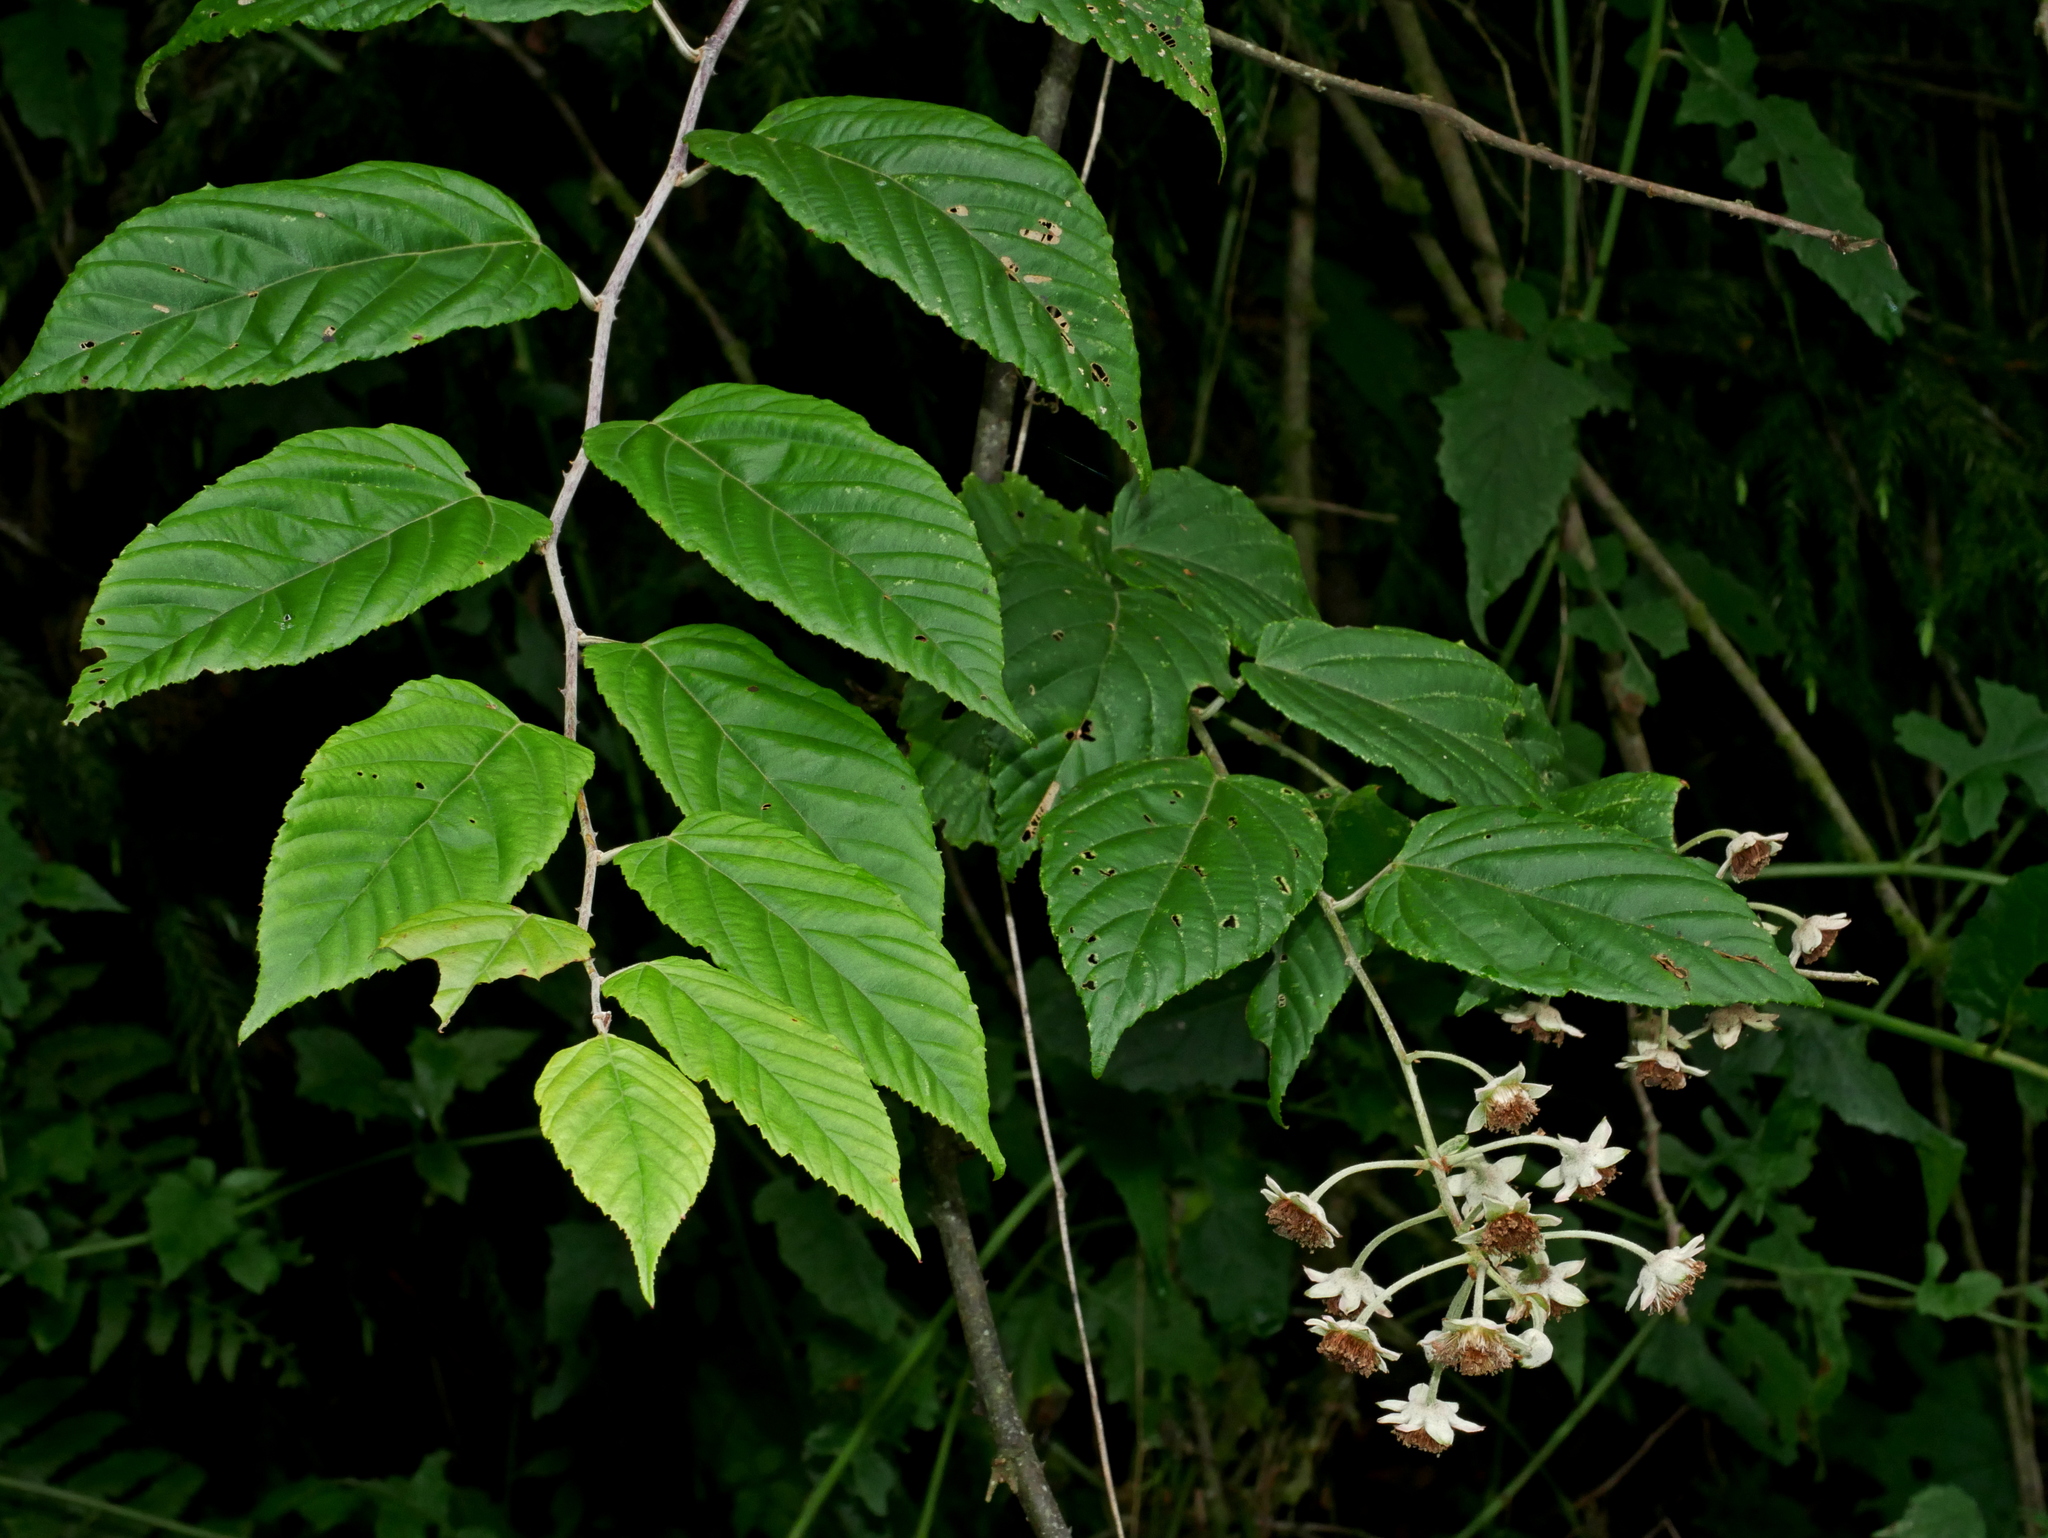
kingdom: Plantae
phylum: Tracheophyta
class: Magnoliopsida
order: Rosales
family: Rosaceae
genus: Rubus
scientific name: Rubus kawakamii
